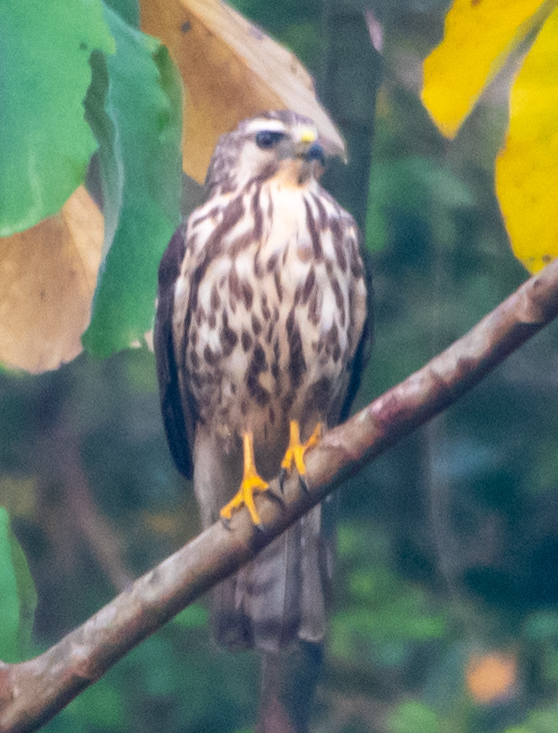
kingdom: Animalia
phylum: Chordata
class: Aves
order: Accipitriformes
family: Accipitridae
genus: Rupornis
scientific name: Rupornis magnirostris
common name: Roadside hawk
